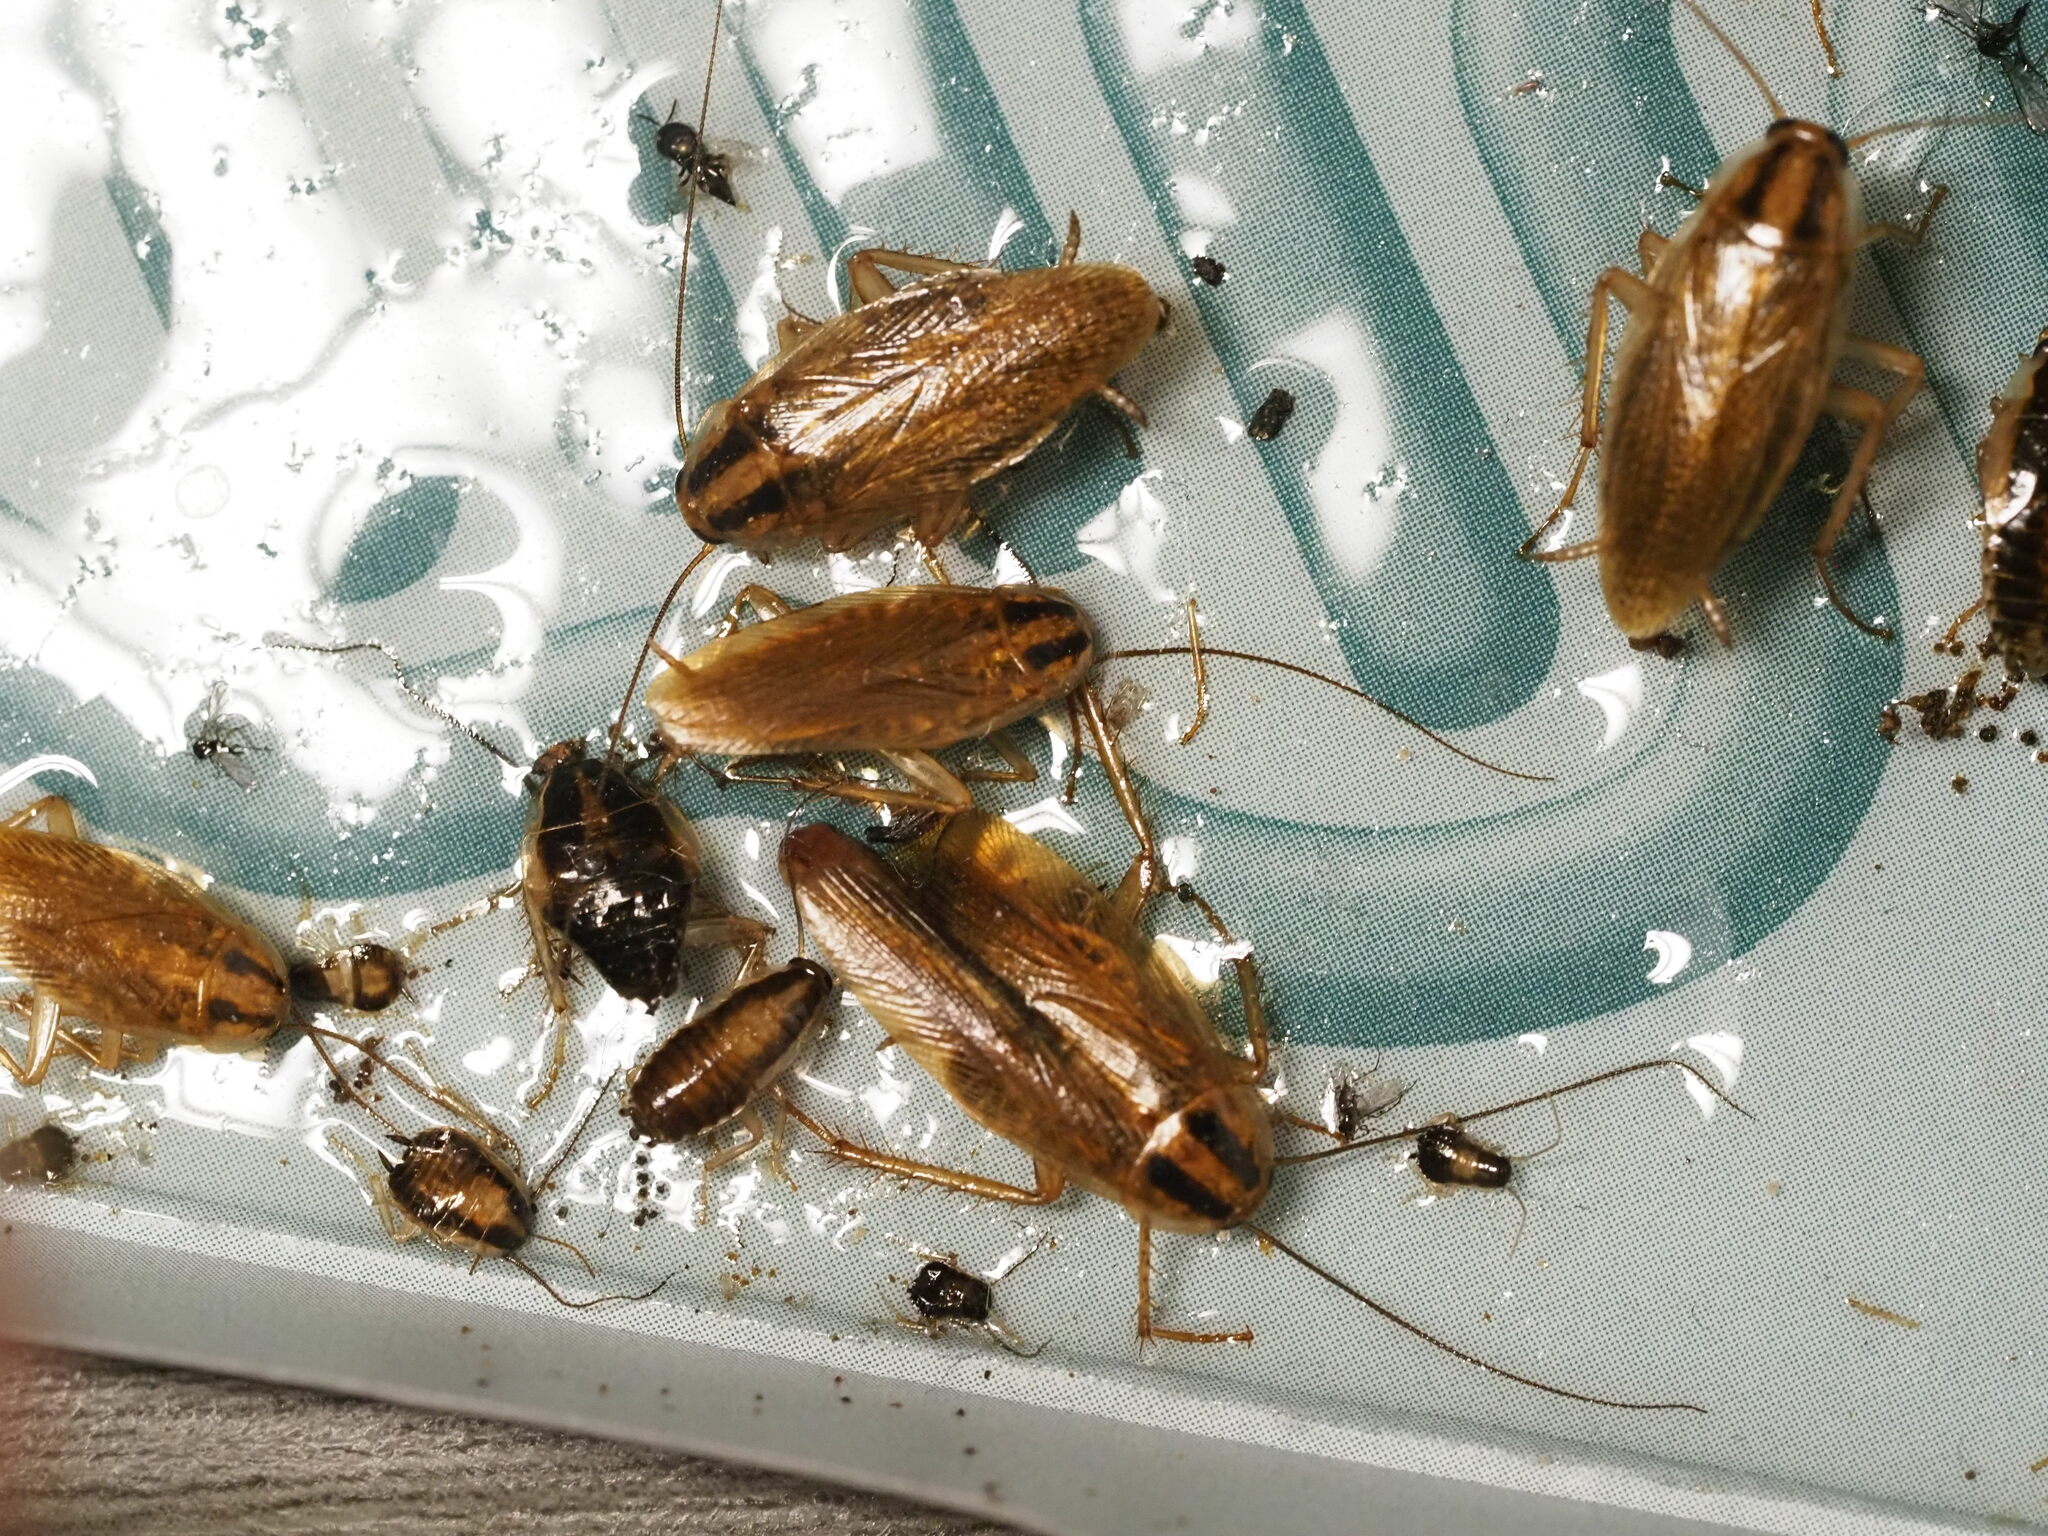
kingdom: Animalia
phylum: Arthropoda
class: Insecta
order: Blattodea
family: Ectobiidae
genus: Blattella
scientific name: Blattella germanica
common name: German cockroach
